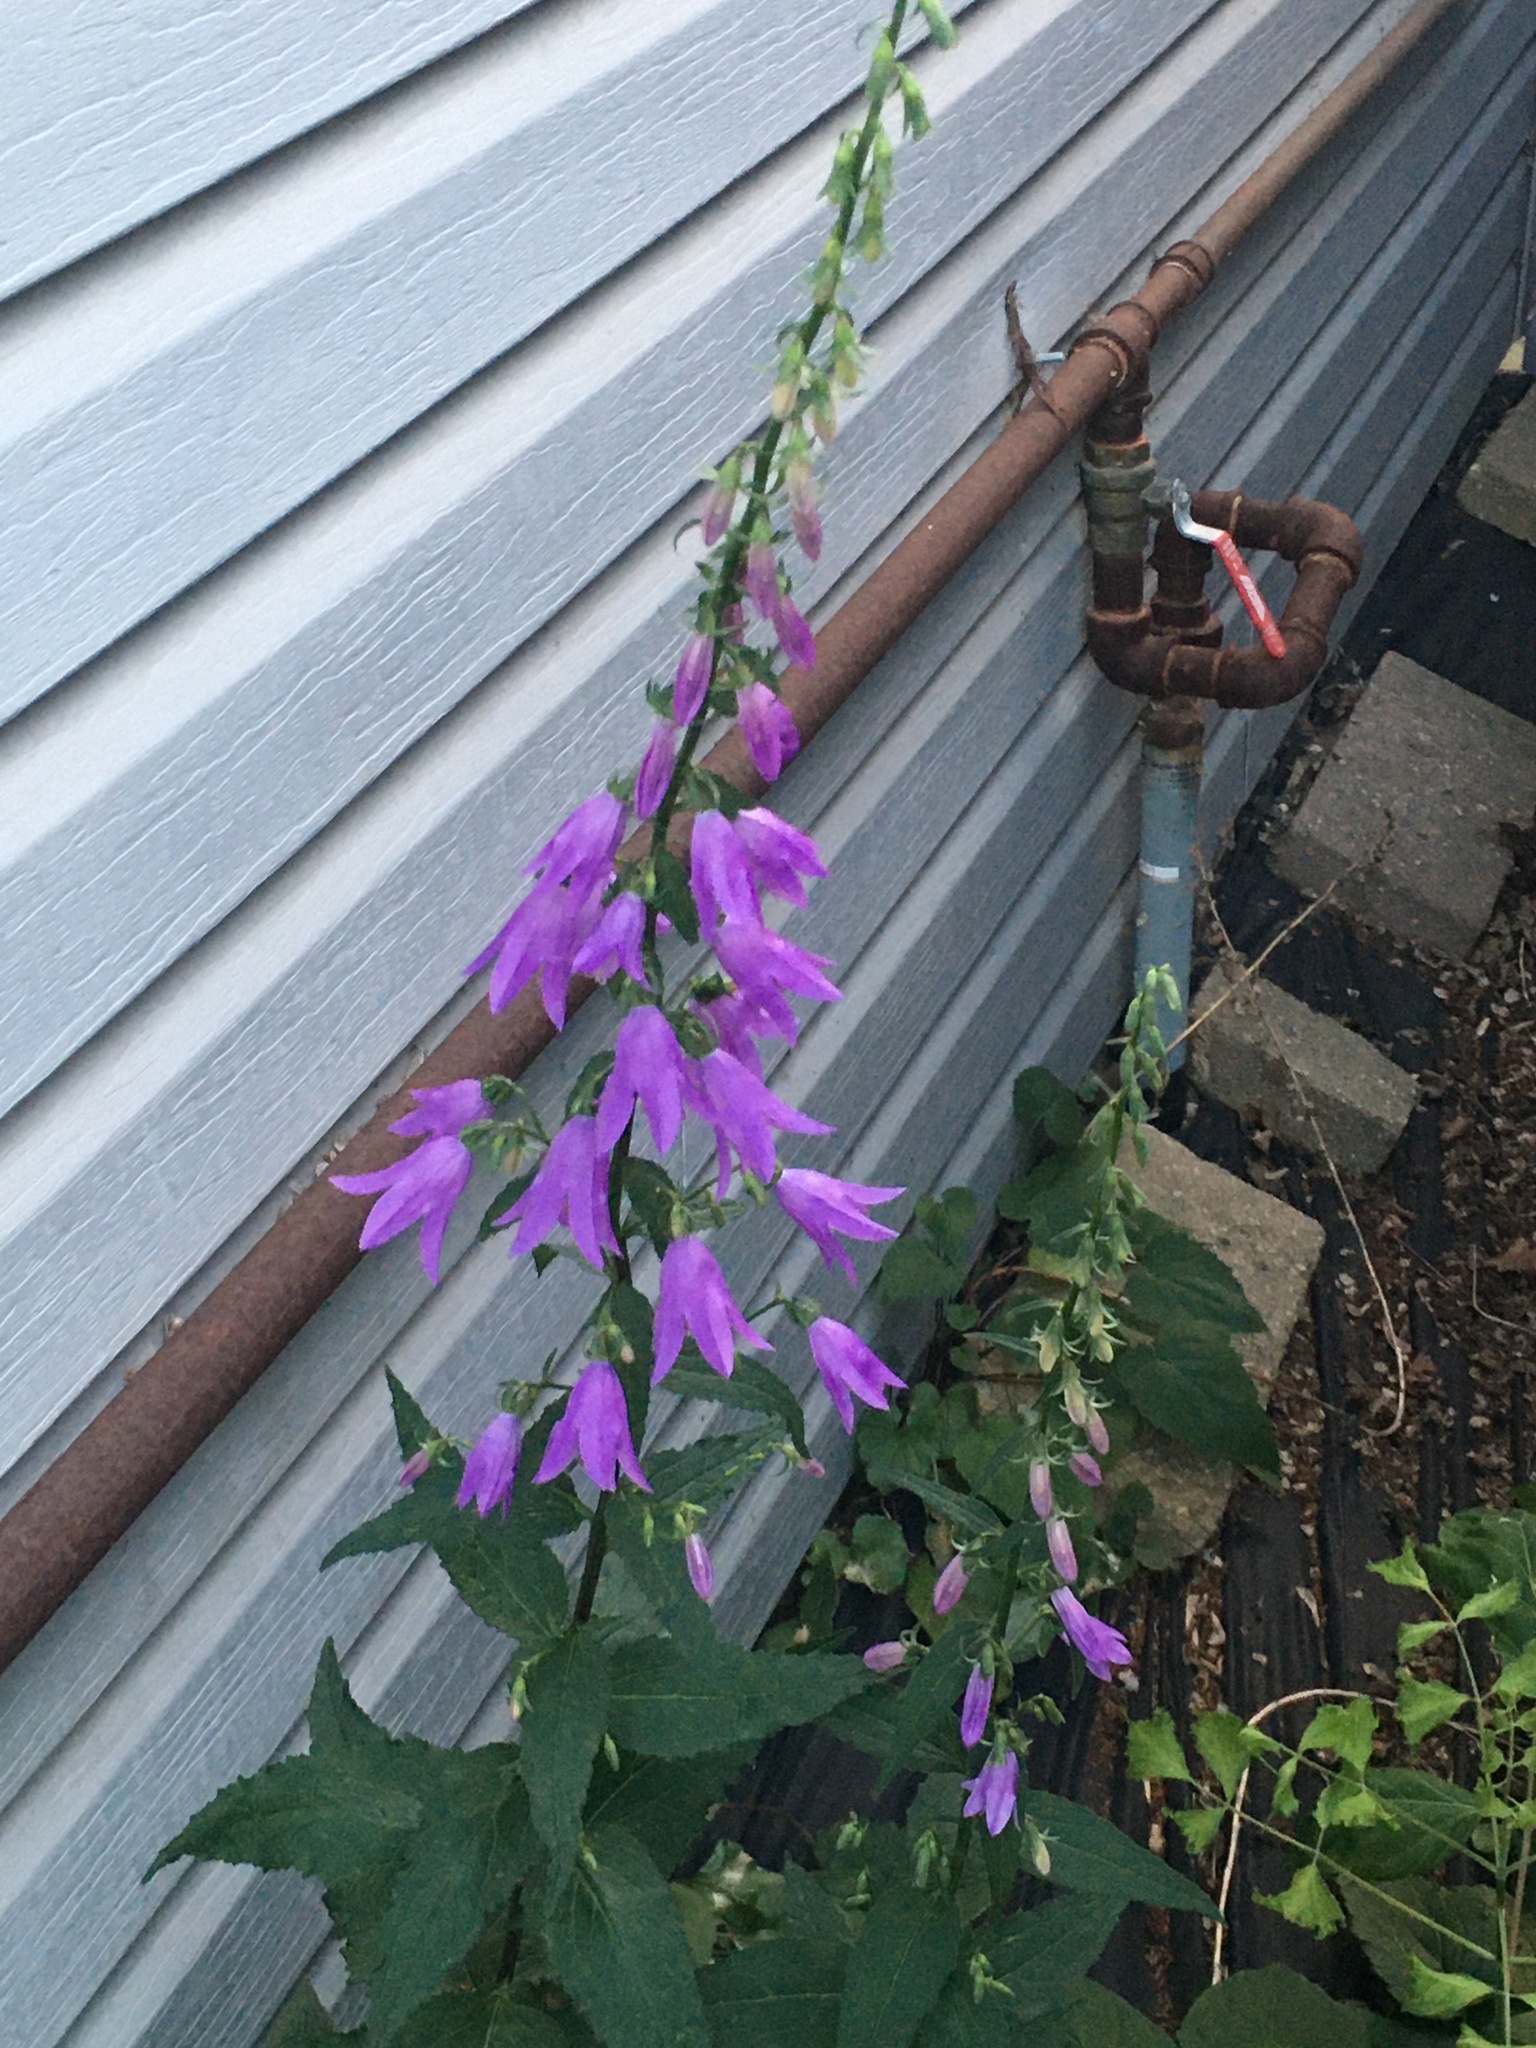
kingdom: Plantae
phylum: Tracheophyta
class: Magnoliopsida
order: Asterales
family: Campanulaceae
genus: Campanula
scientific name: Campanula rapunculoides
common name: Creeping bellflower
